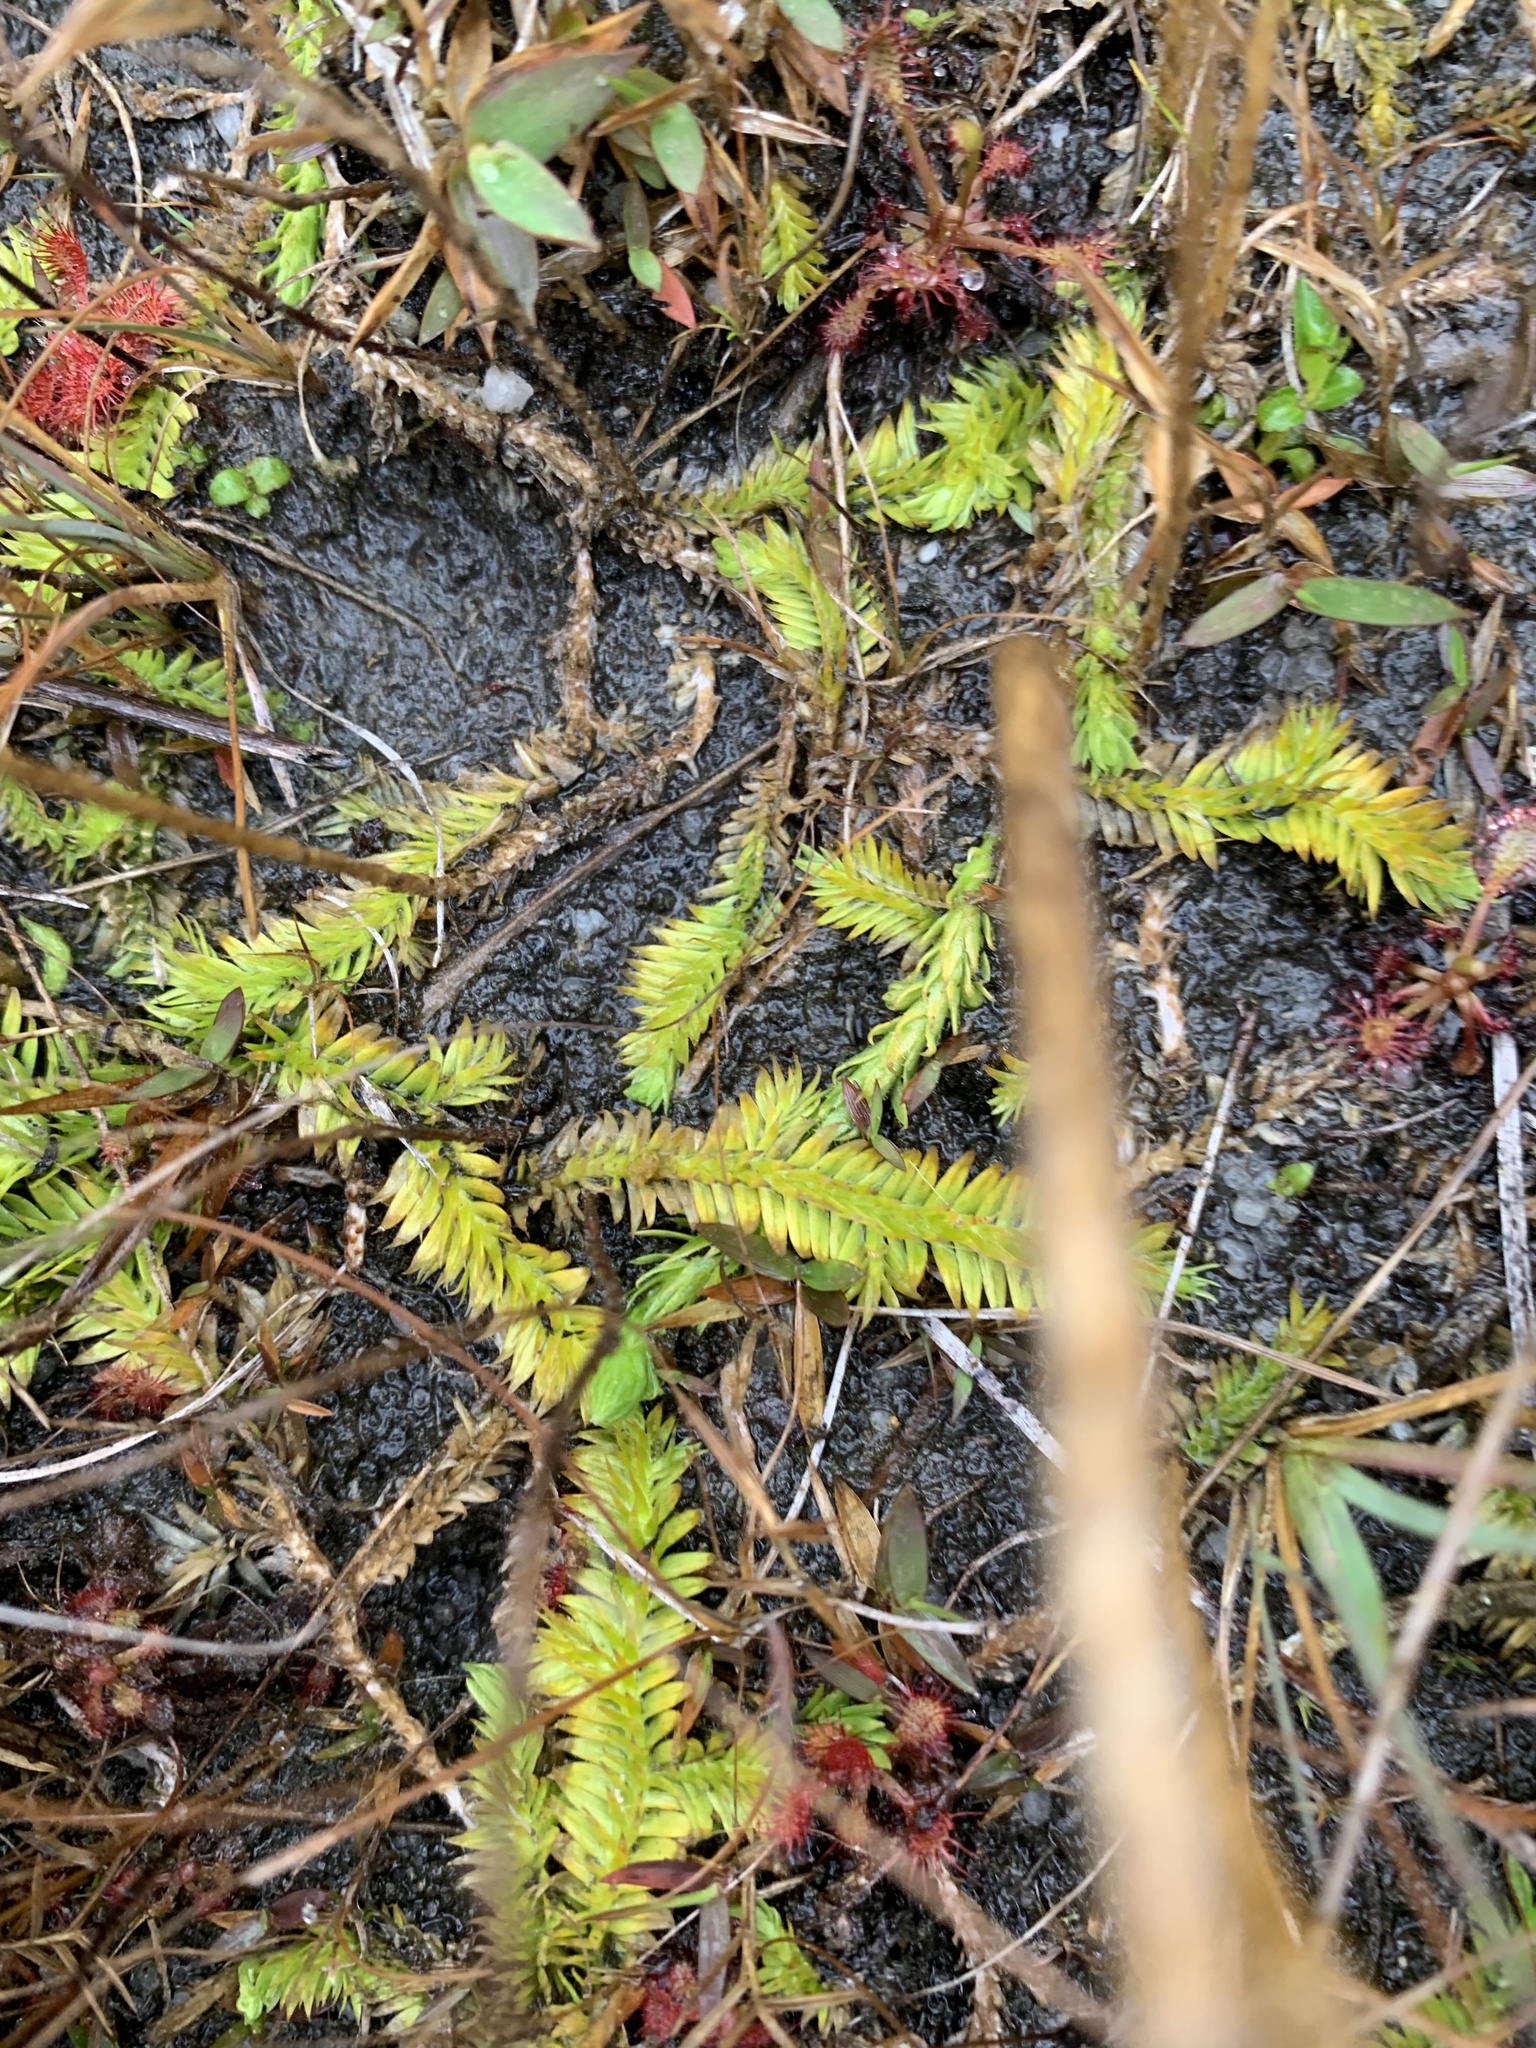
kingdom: Plantae
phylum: Tracheophyta
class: Lycopodiopsida
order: Lycopodiales
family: Lycopodiaceae
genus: Pseudolycopodiella
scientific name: Pseudolycopodiella caroliniana
